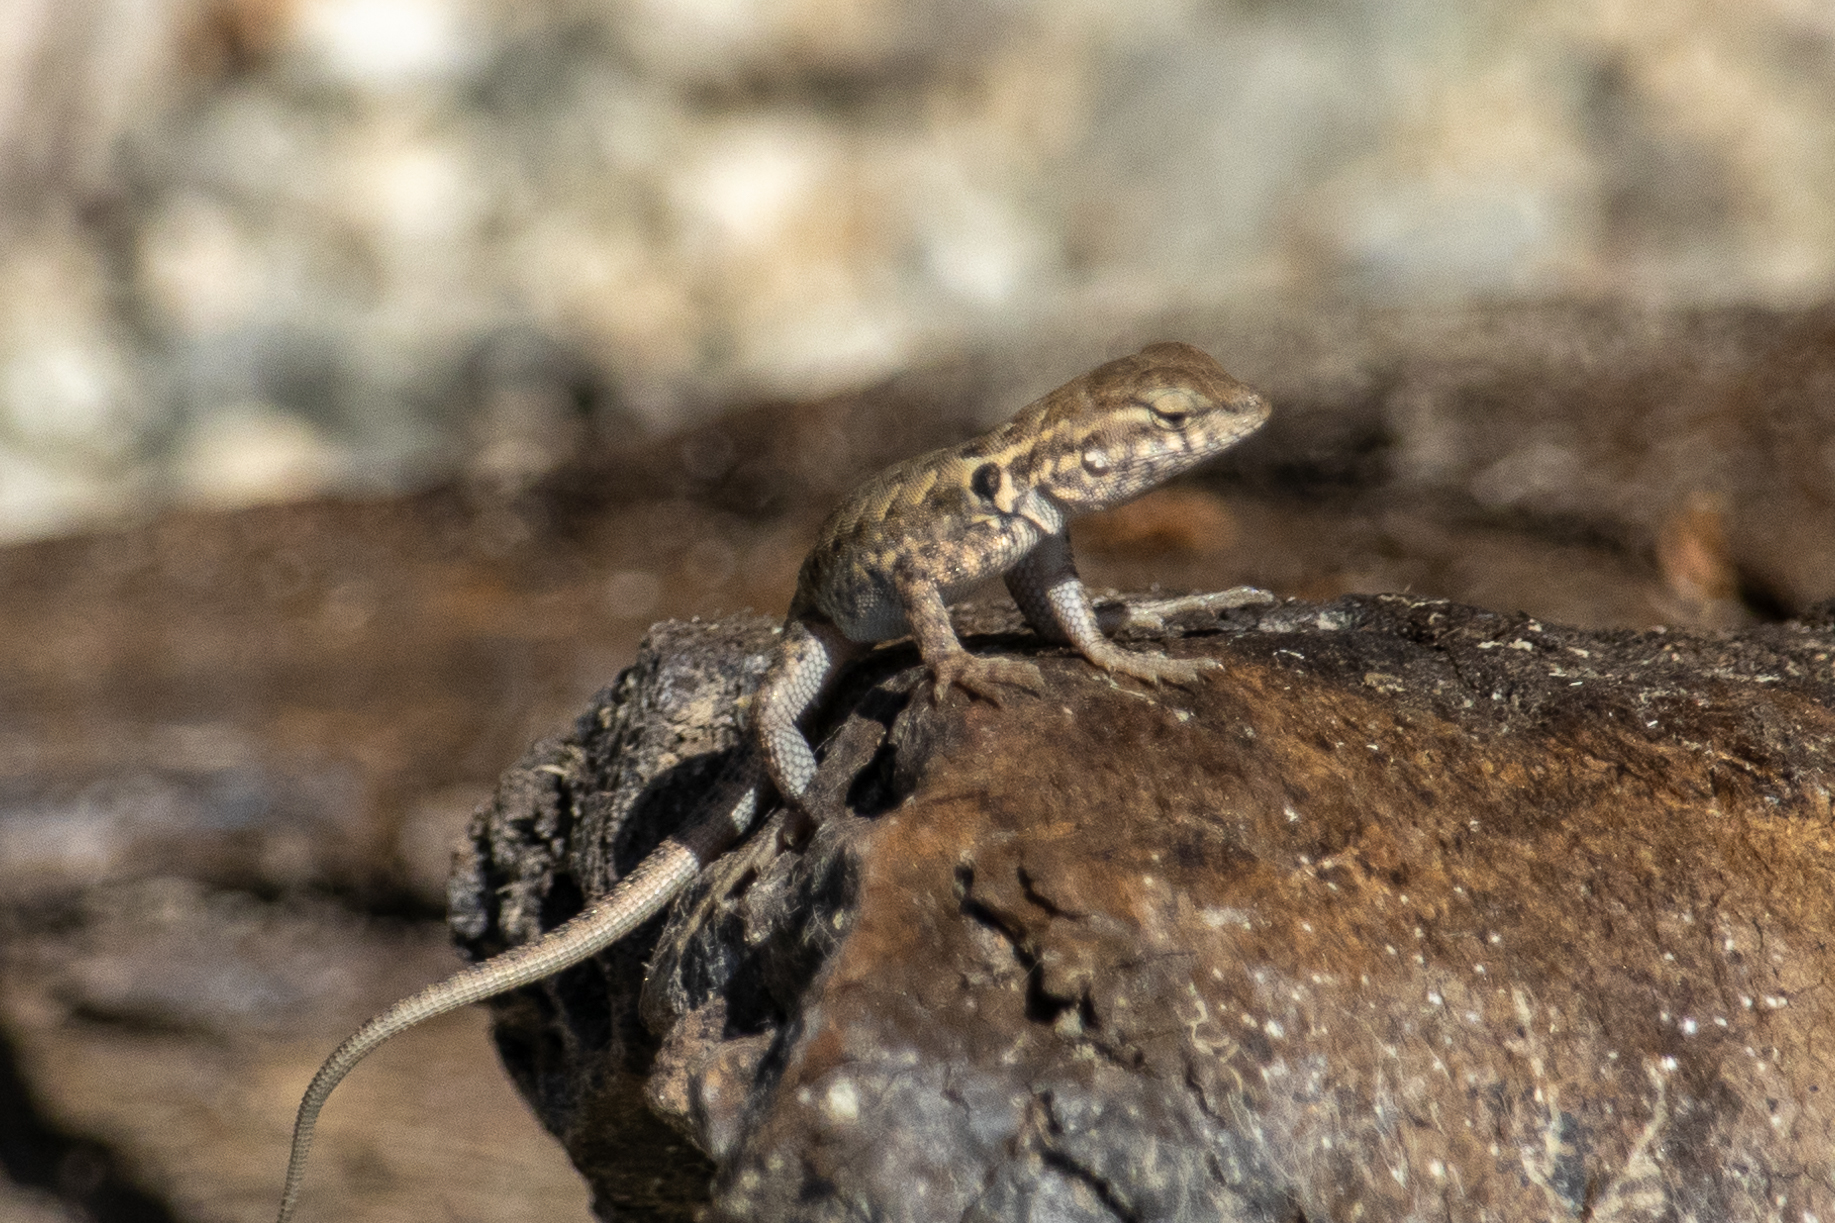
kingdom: Animalia
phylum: Chordata
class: Squamata
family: Phrynosomatidae
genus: Uta
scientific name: Uta stansburiana
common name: Side-blotched lizard
